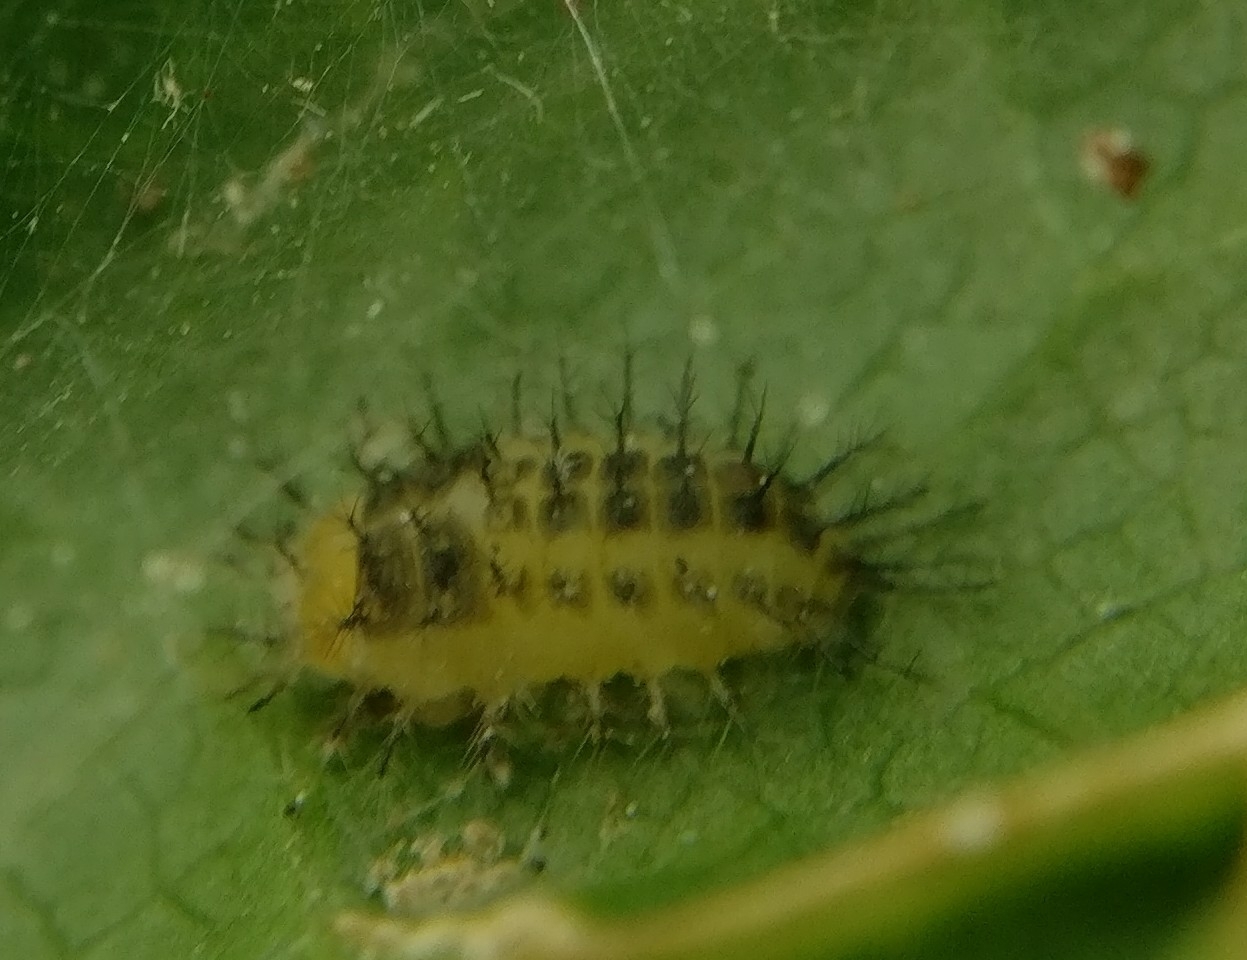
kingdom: Animalia
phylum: Arthropoda
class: Insecta
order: Coleoptera
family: Coccinellidae
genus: Halmus
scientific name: Halmus chalybeus
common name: Steel blue ladybird beetle
